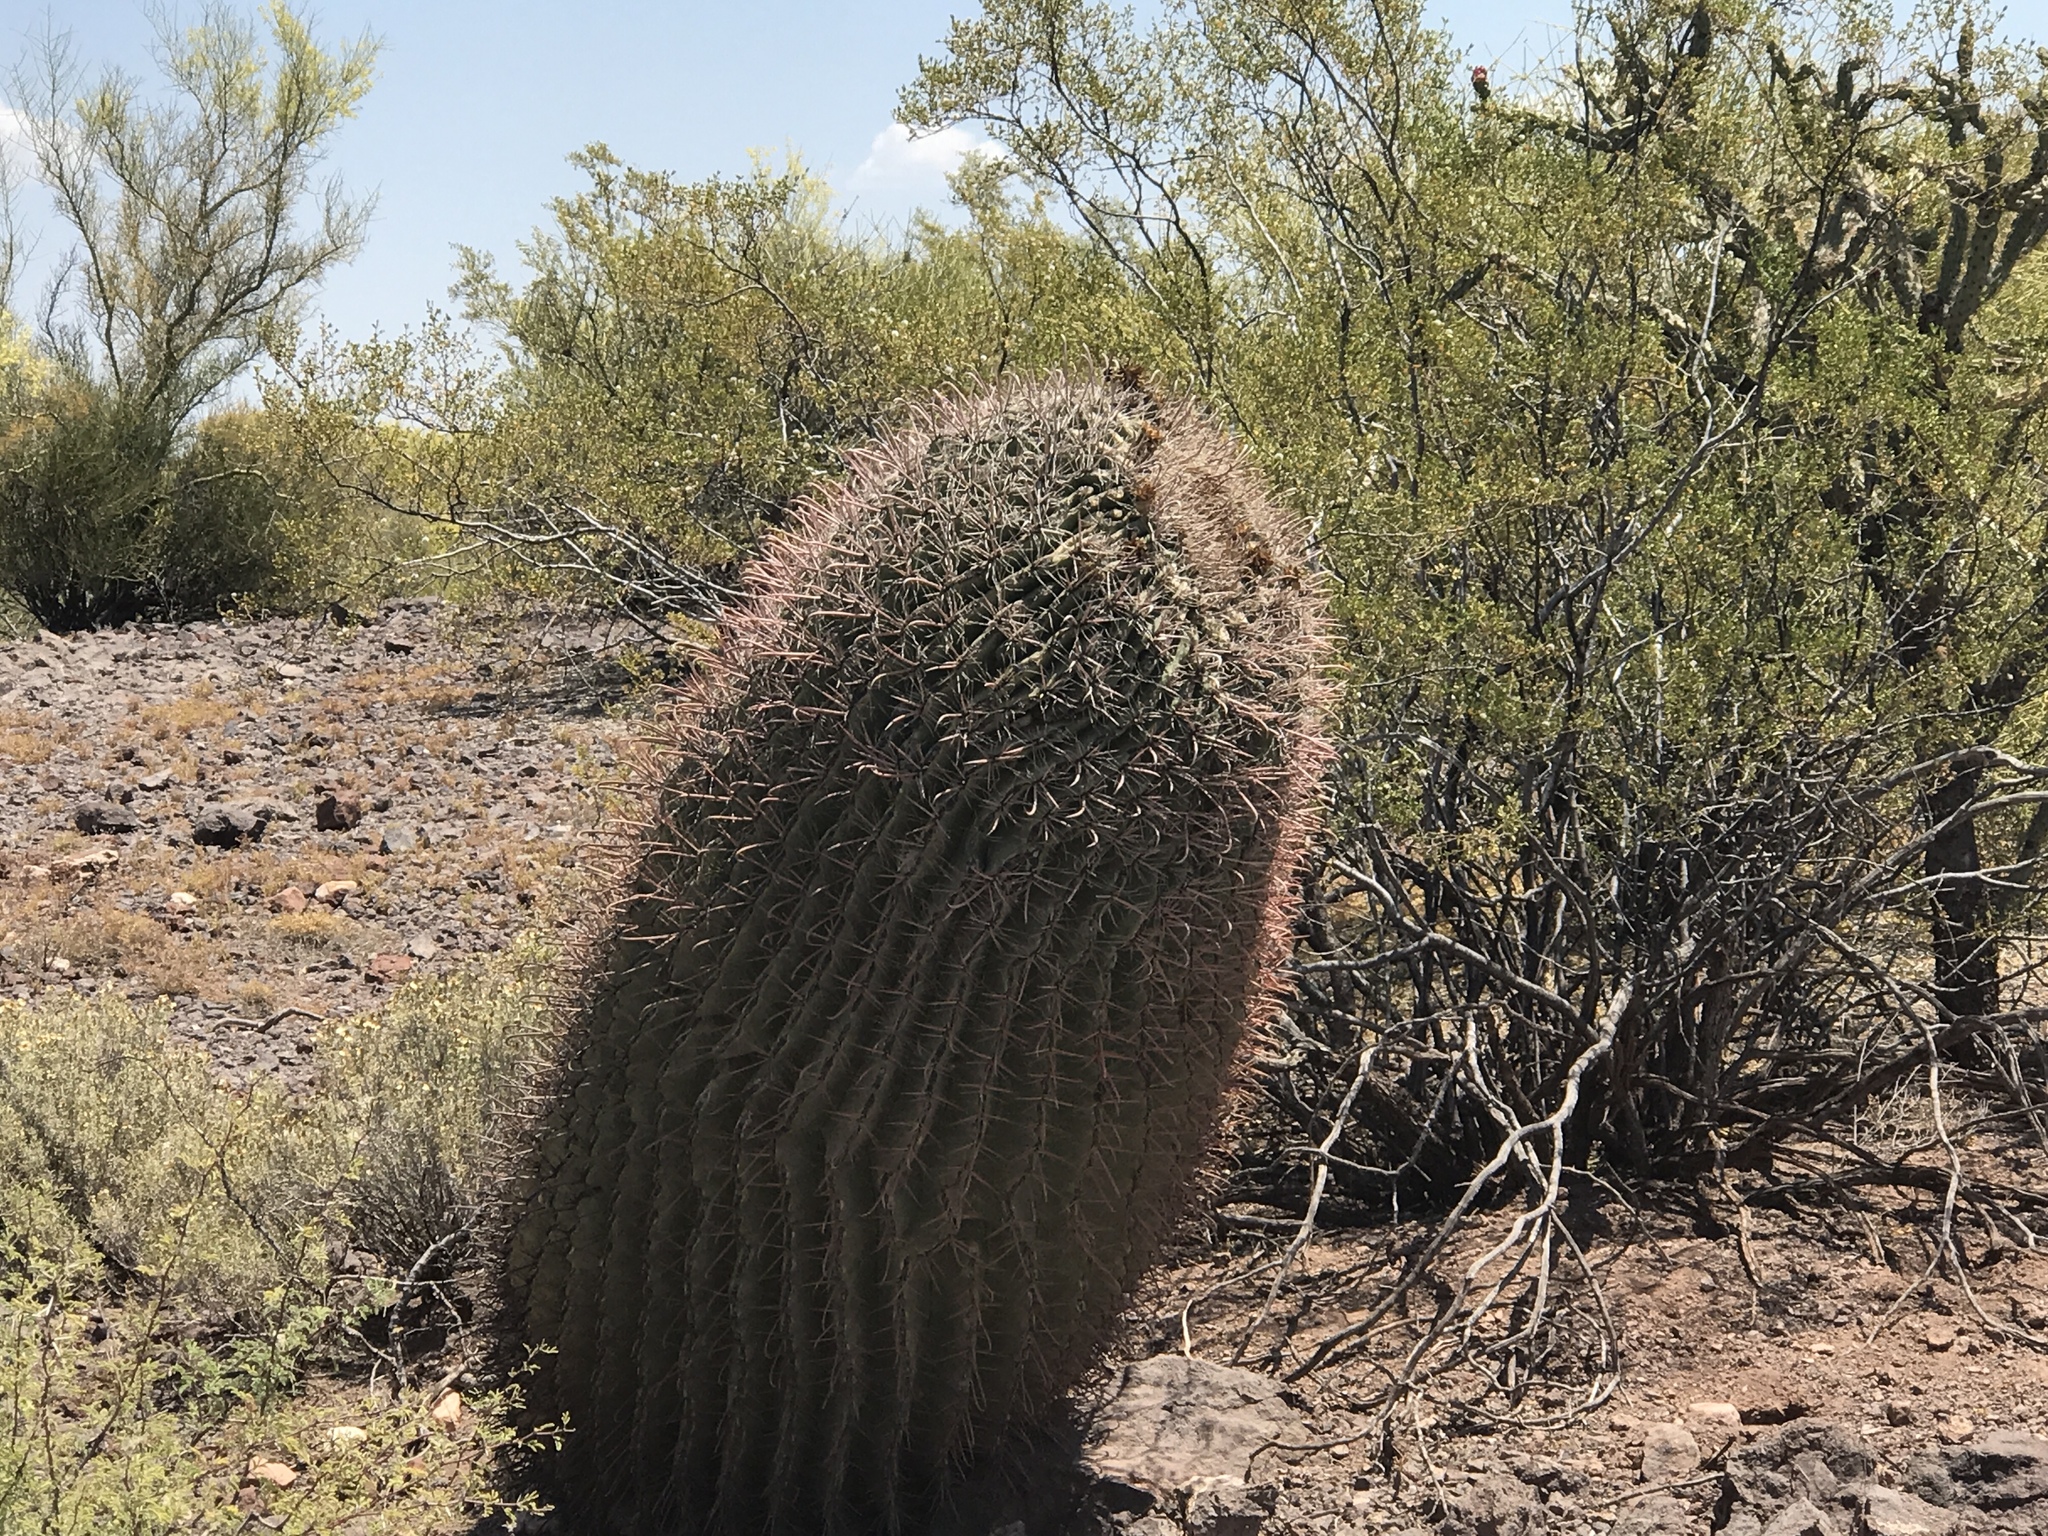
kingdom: Plantae
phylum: Tracheophyta
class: Magnoliopsida
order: Caryophyllales
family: Cactaceae
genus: Ferocactus
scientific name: Ferocactus wislizeni
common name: Candy barrel cactus
